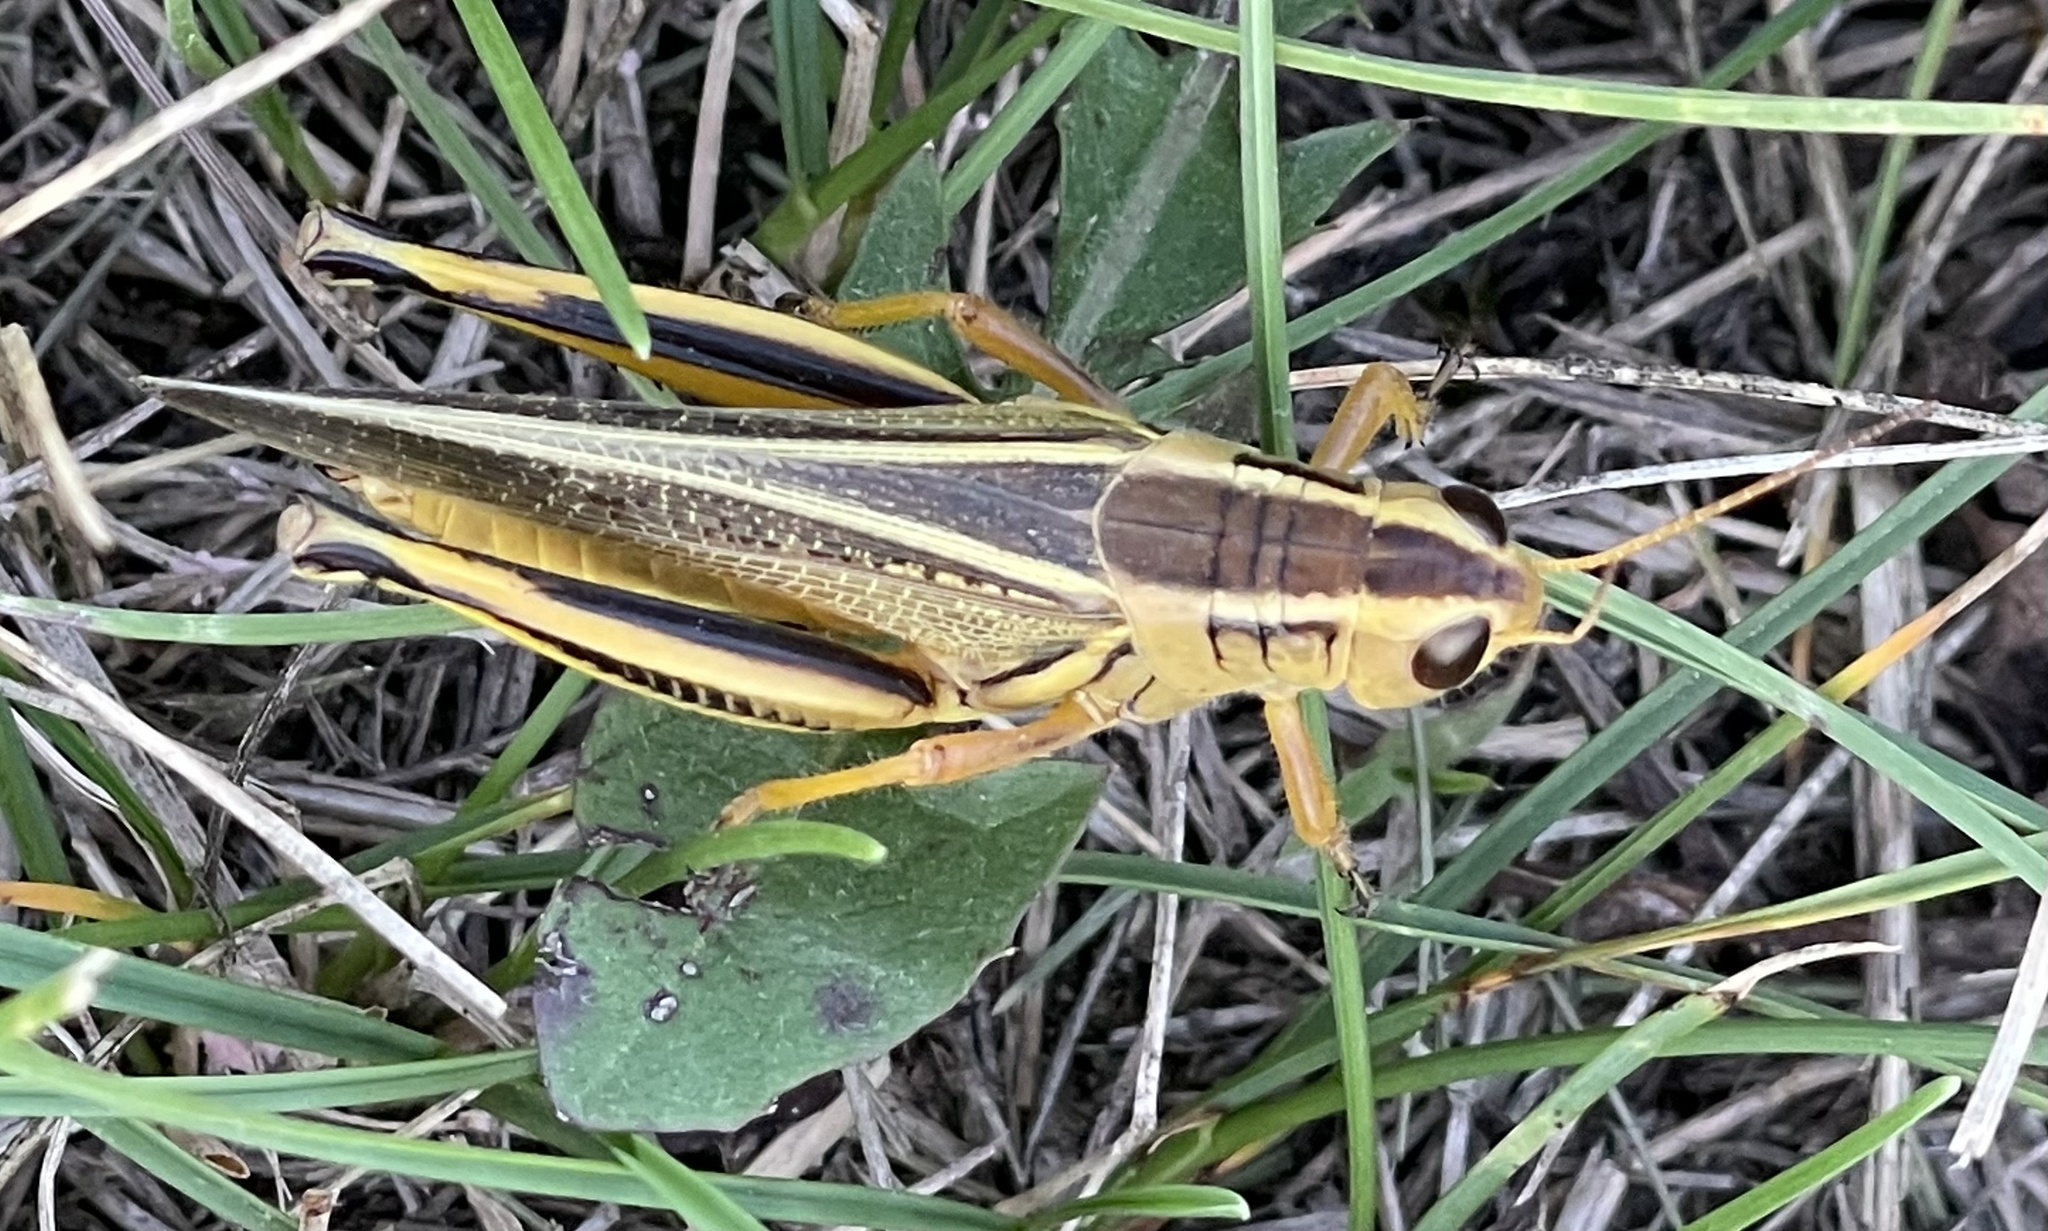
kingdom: Animalia
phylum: Arthropoda
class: Insecta
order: Orthoptera
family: Acrididae
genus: Melanoplus
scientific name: Melanoplus bivittatus
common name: Two-striped grasshopper
